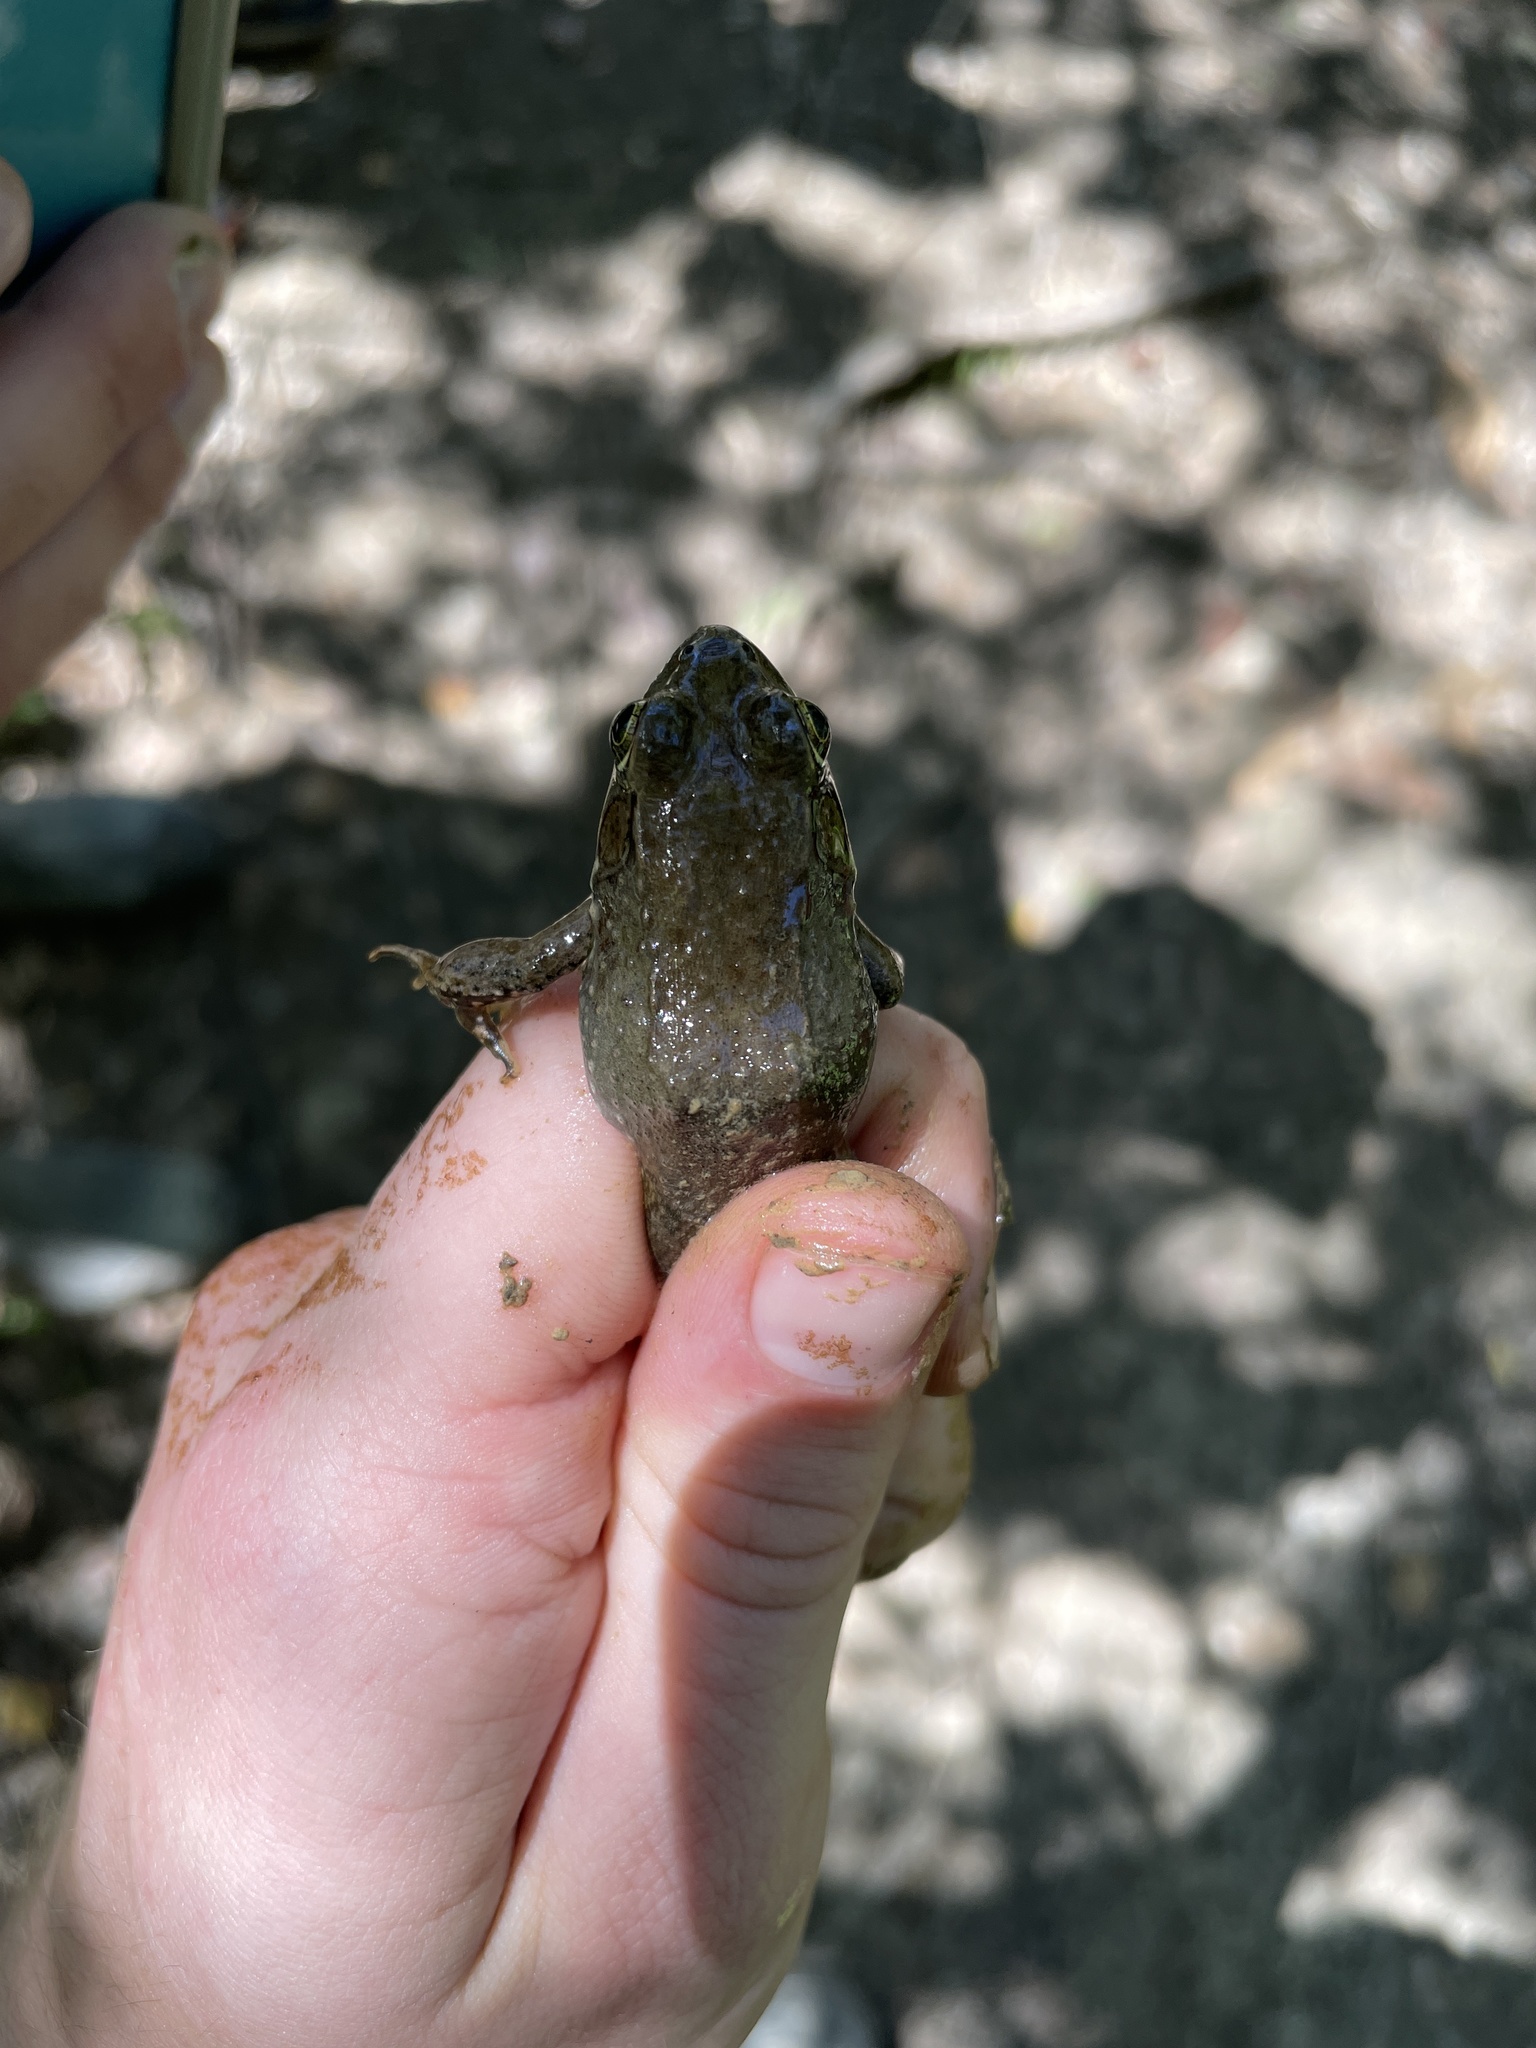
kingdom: Animalia
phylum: Chordata
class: Amphibia
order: Anura
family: Ranidae
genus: Lithobates
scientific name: Lithobates clamitans
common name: Green frog
